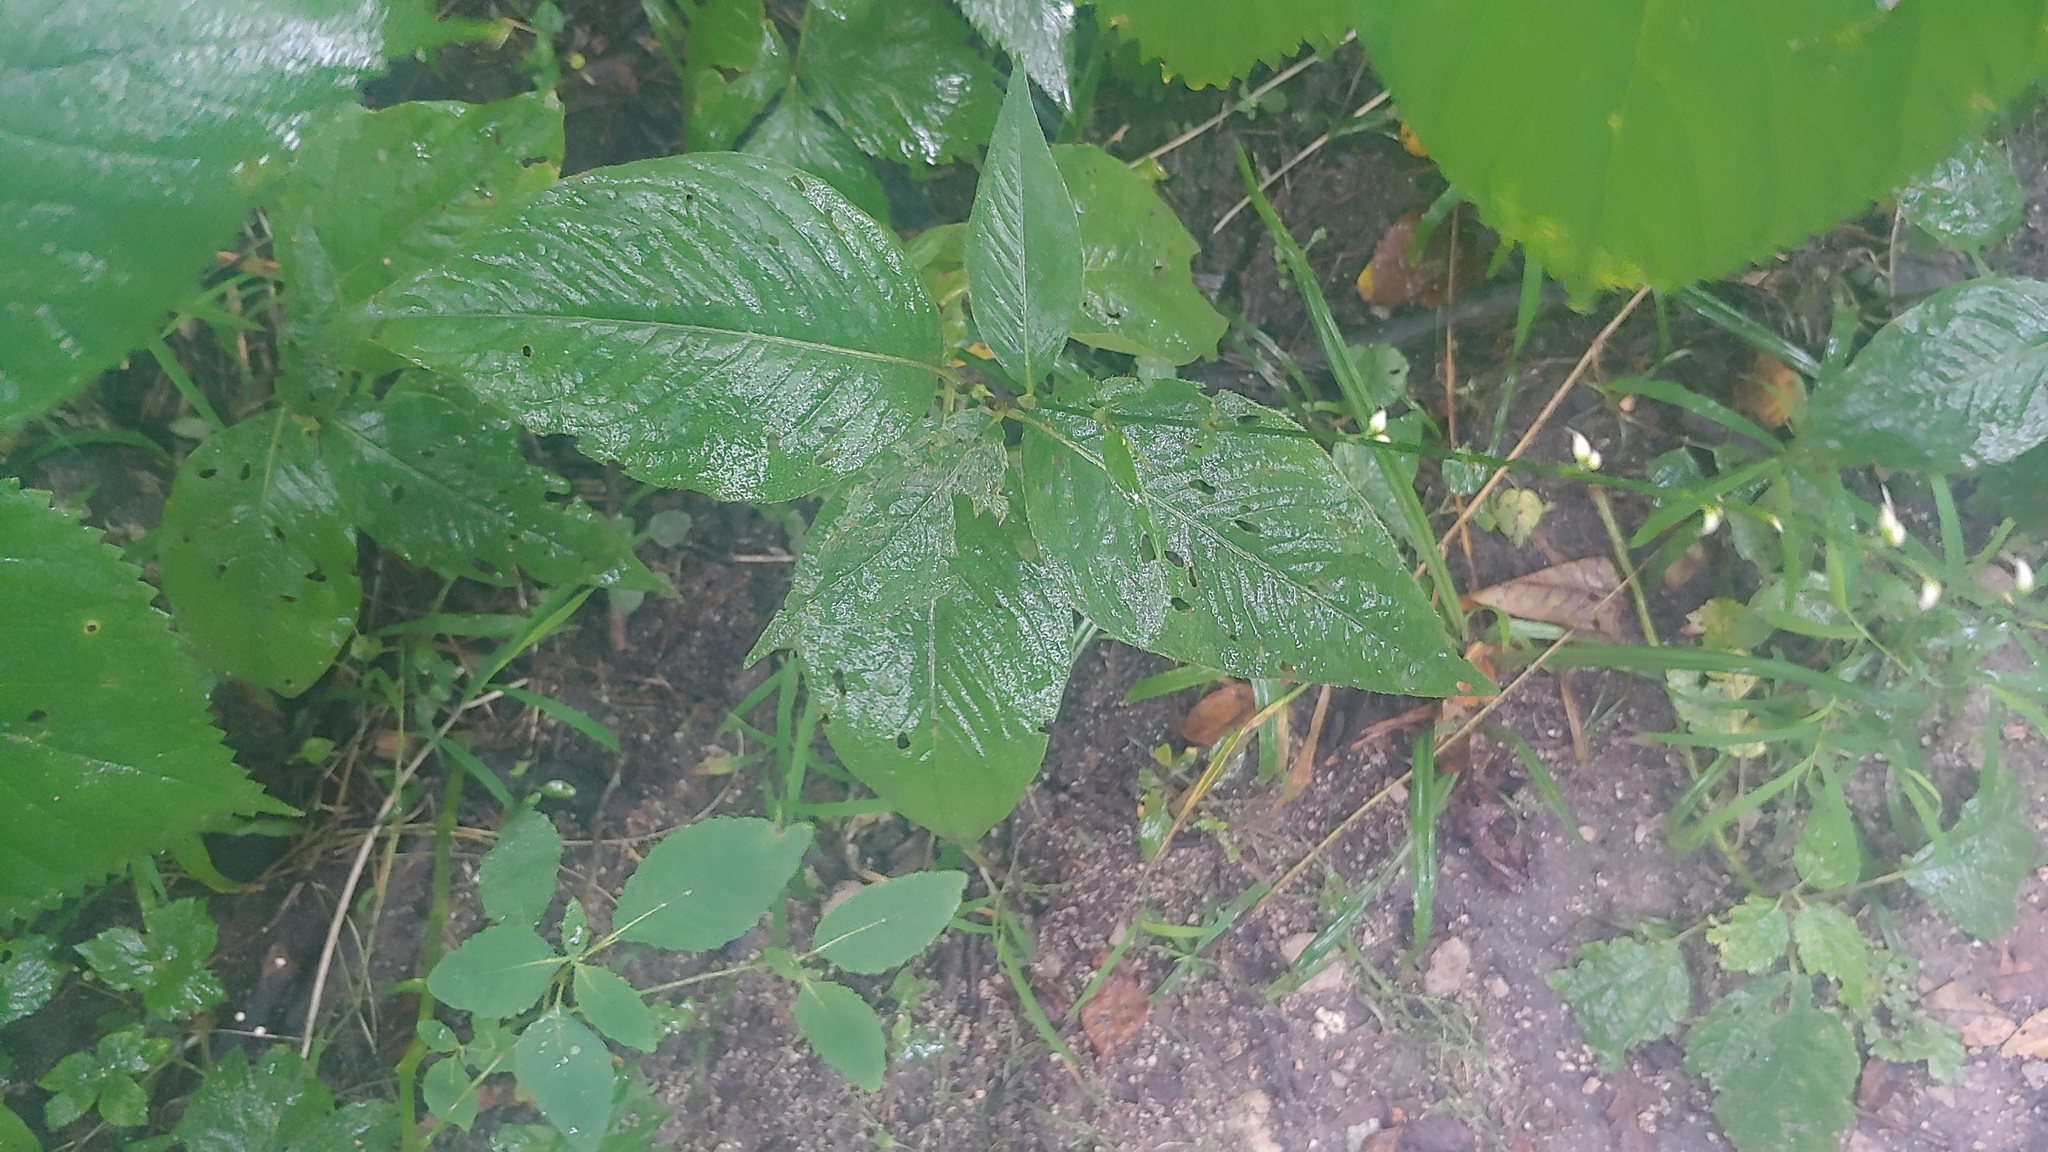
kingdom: Plantae
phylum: Tracheophyta
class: Magnoliopsida
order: Caryophyllales
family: Polygonaceae
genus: Persicaria
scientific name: Persicaria virginiana
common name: Jumpseed
